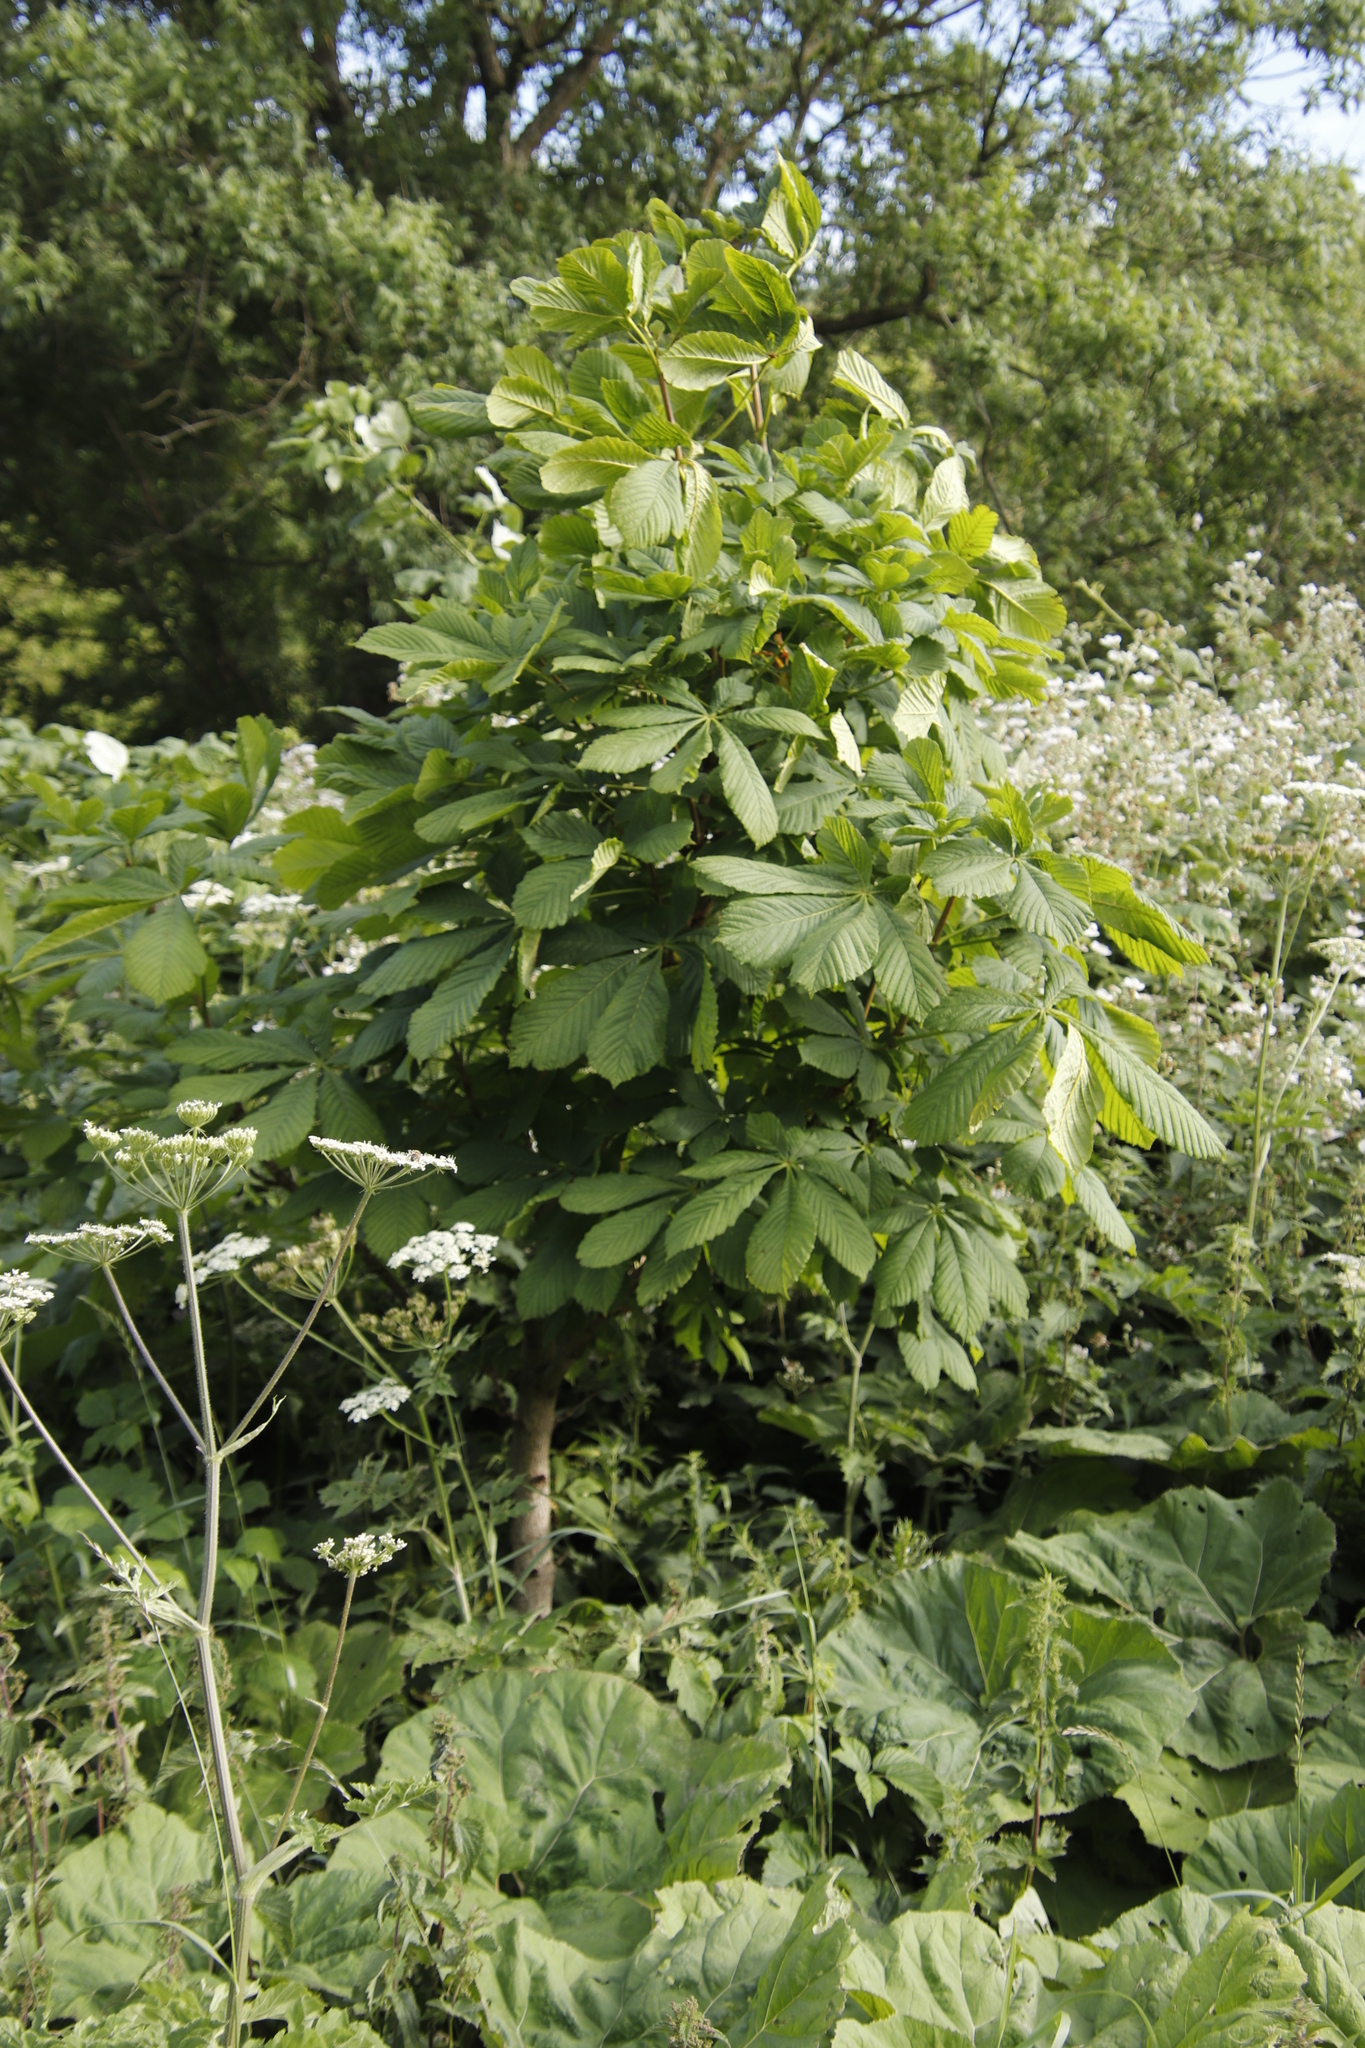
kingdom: Plantae
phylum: Tracheophyta
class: Magnoliopsida
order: Sapindales
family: Sapindaceae
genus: Aesculus
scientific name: Aesculus hippocastanum
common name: Horse-chestnut
